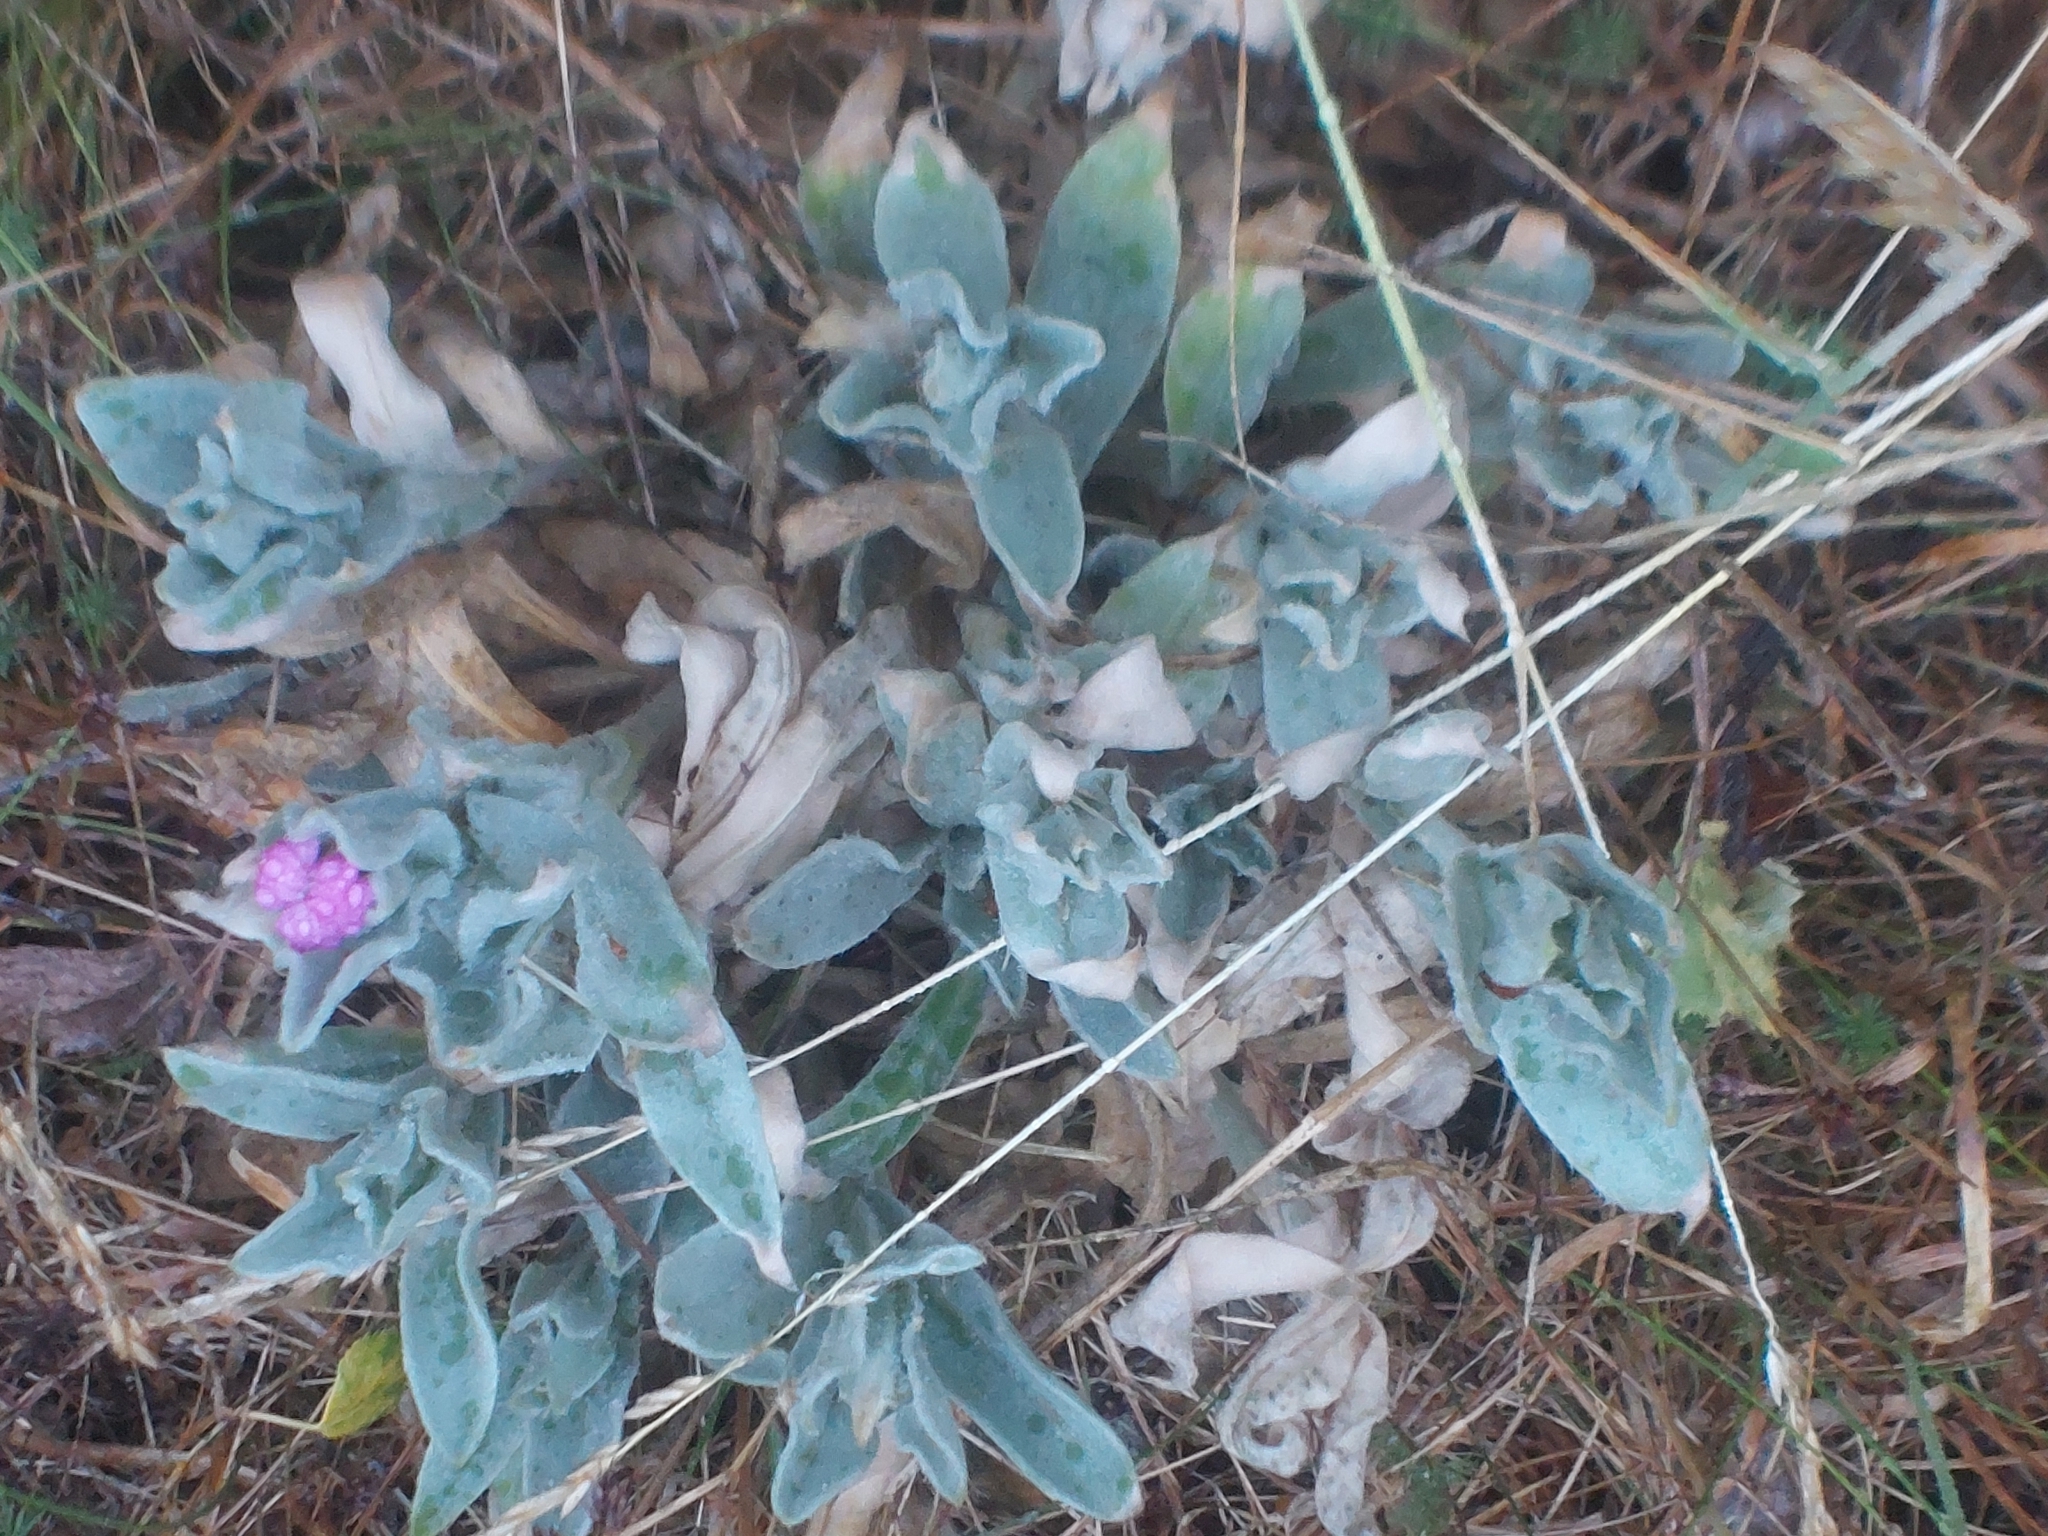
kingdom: Plantae
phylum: Tracheophyta
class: Magnoliopsida
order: Caryophyllales
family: Caryophyllaceae
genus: Silene
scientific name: Silene coronaria
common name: Rose campion
